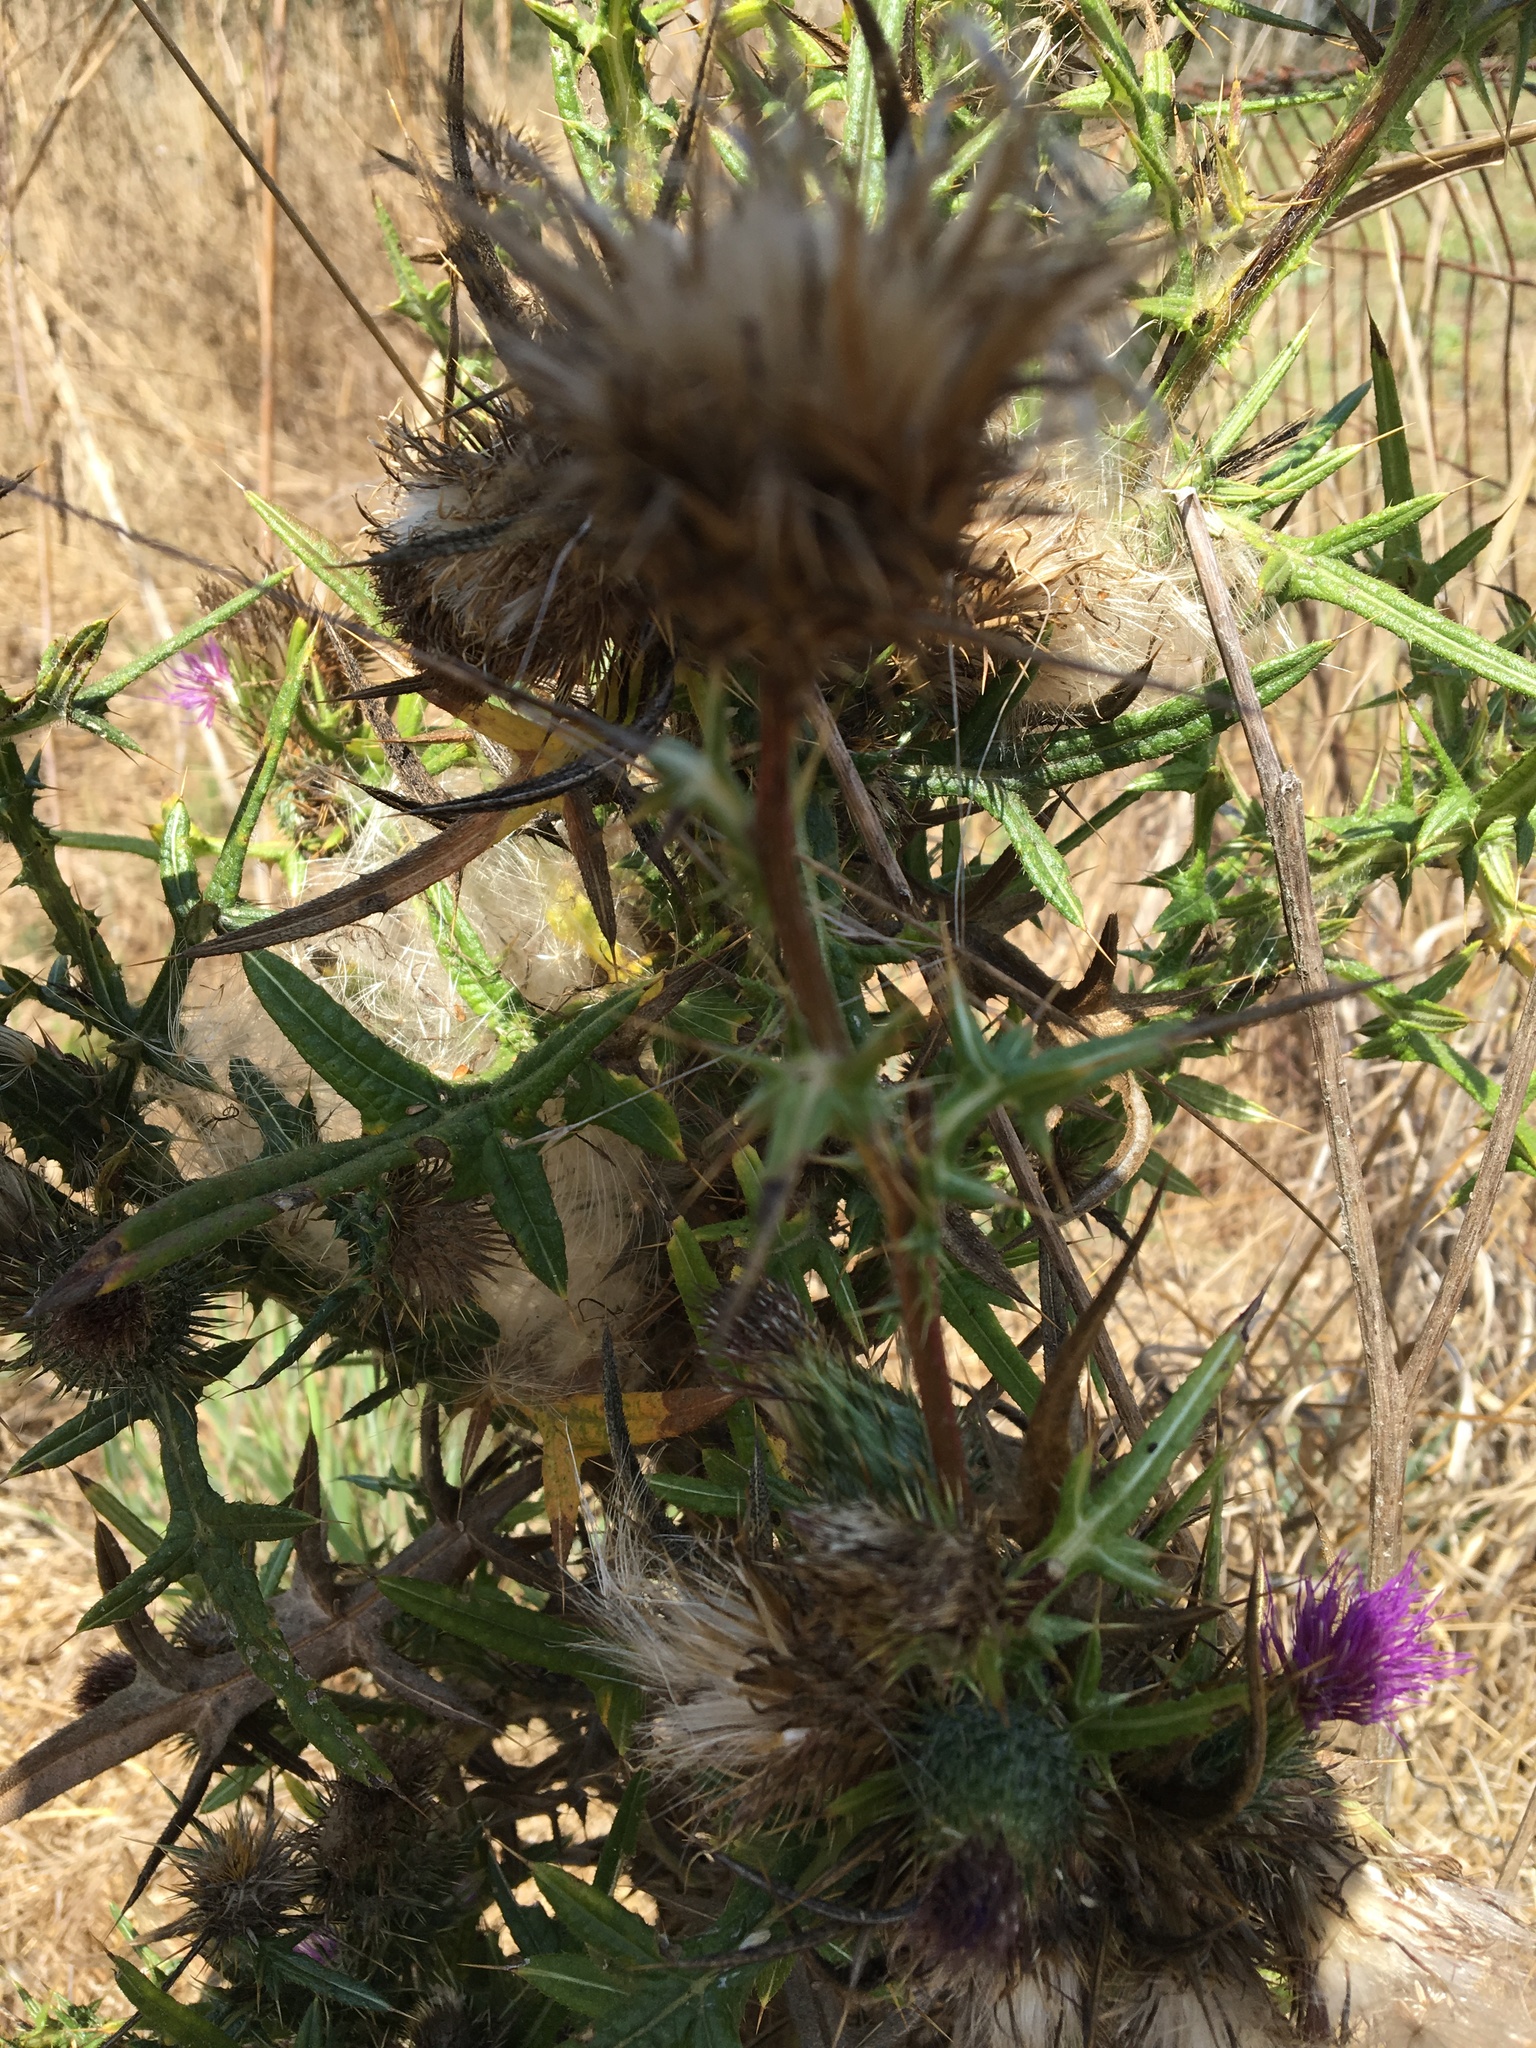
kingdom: Plantae
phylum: Tracheophyta
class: Magnoliopsida
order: Asterales
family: Asteraceae
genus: Cirsium
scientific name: Cirsium vulgare
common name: Bull thistle
